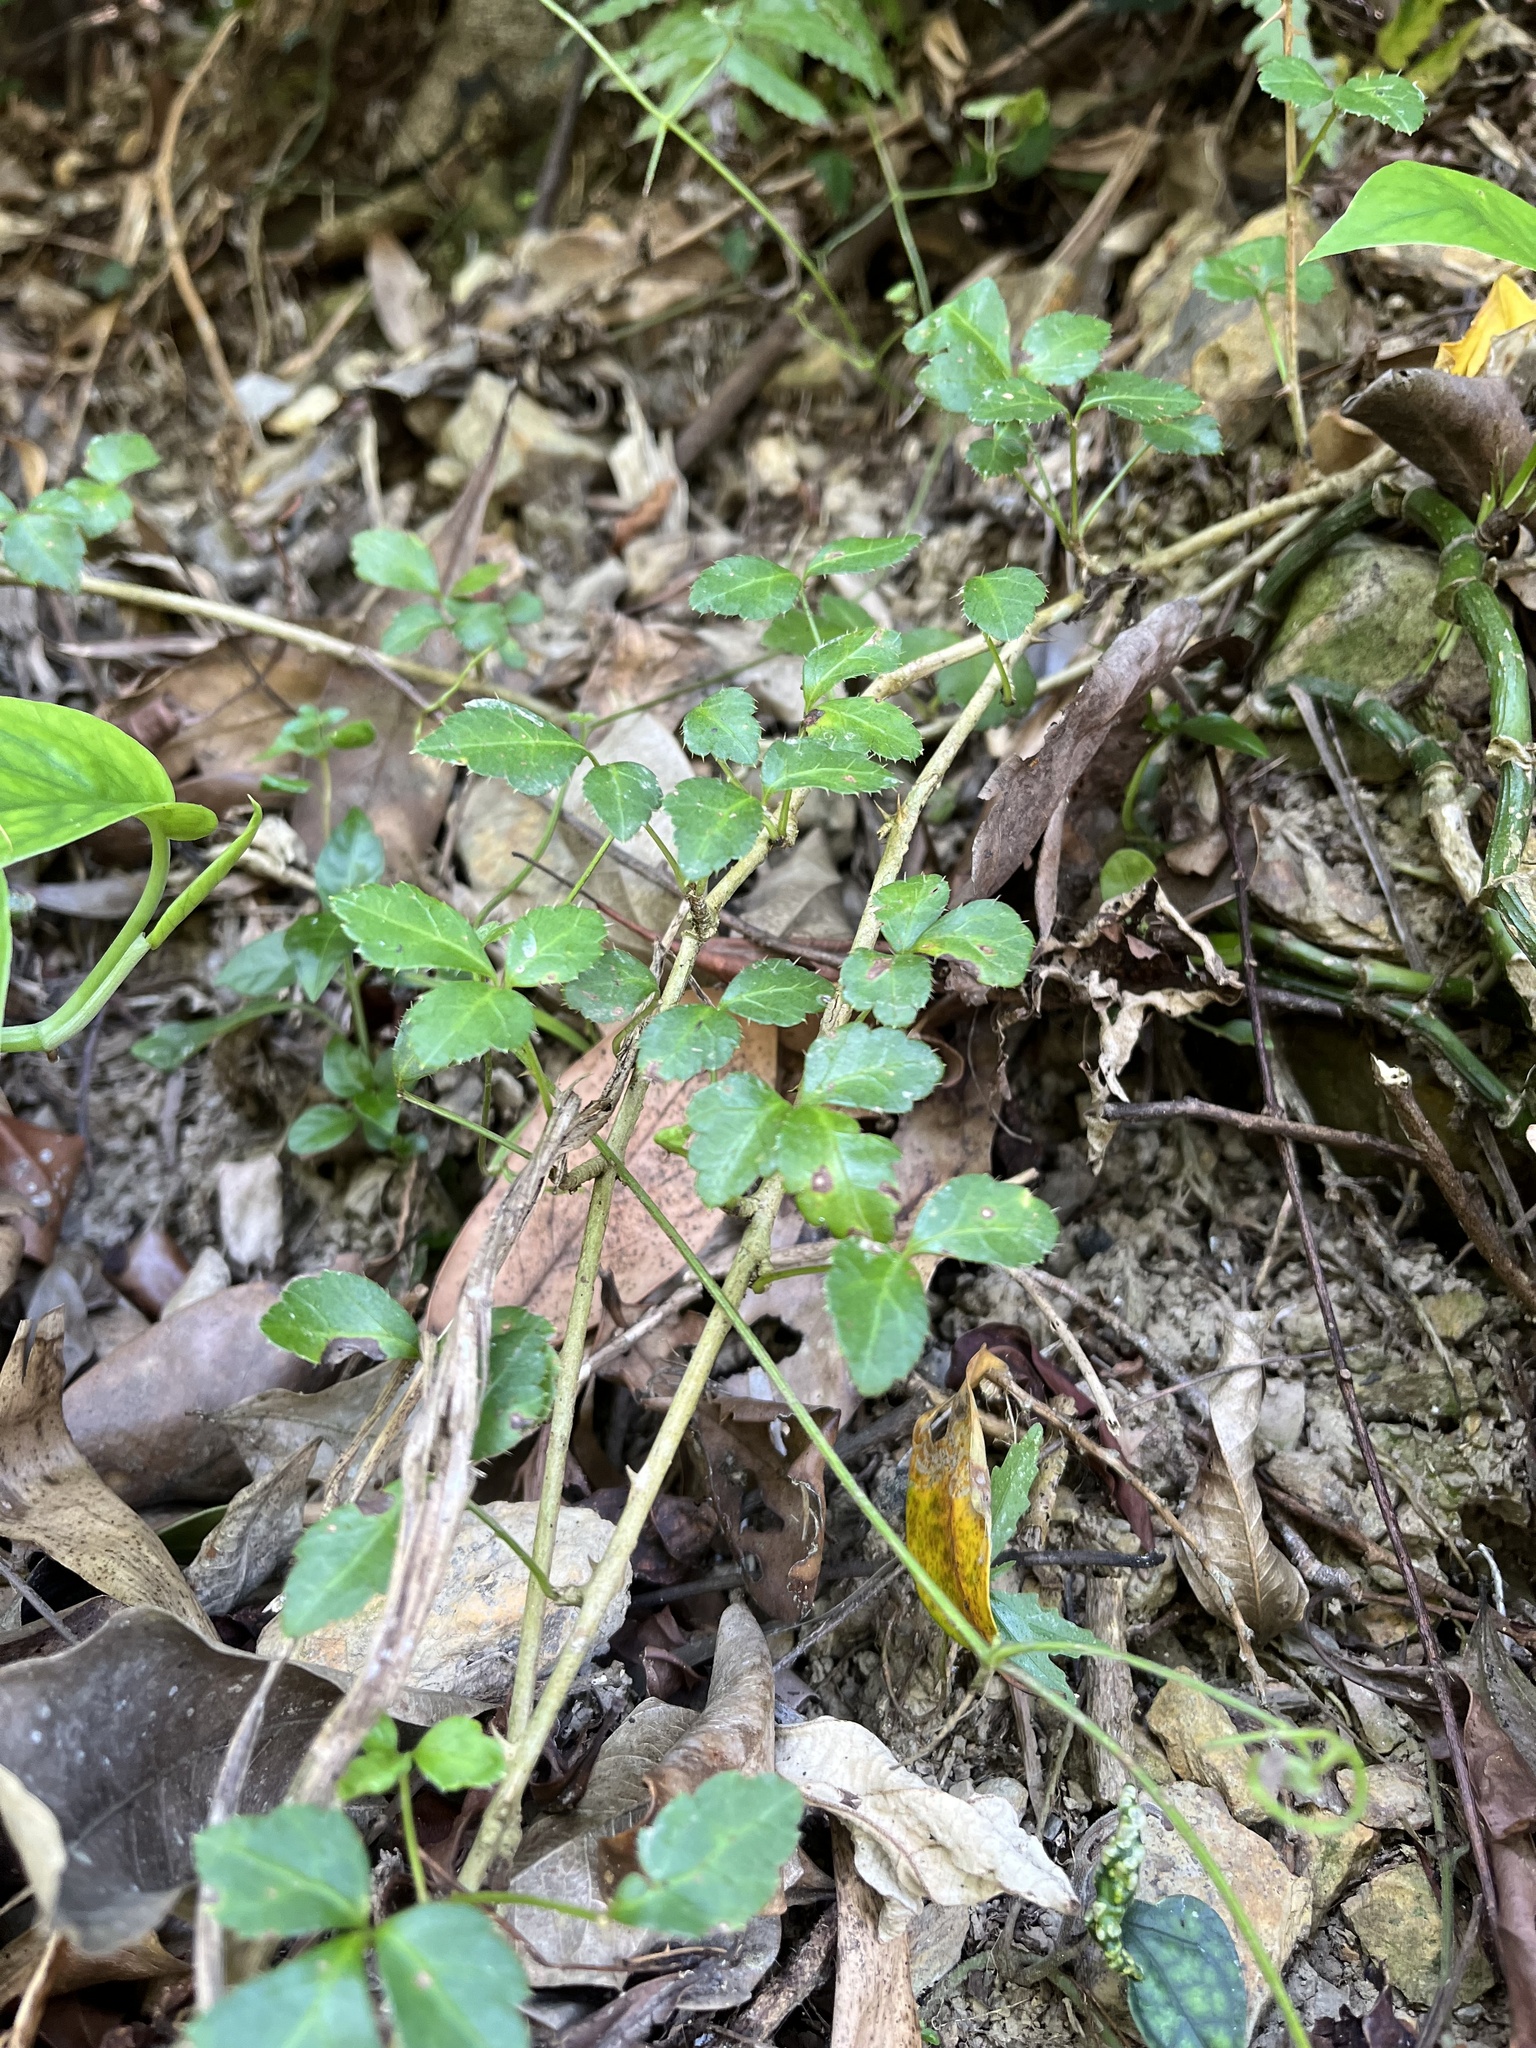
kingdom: Plantae
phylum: Tracheophyta
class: Magnoliopsida
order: Apiales
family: Araliaceae
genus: Eleutherococcus
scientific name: Eleutherococcus trifoliatus
